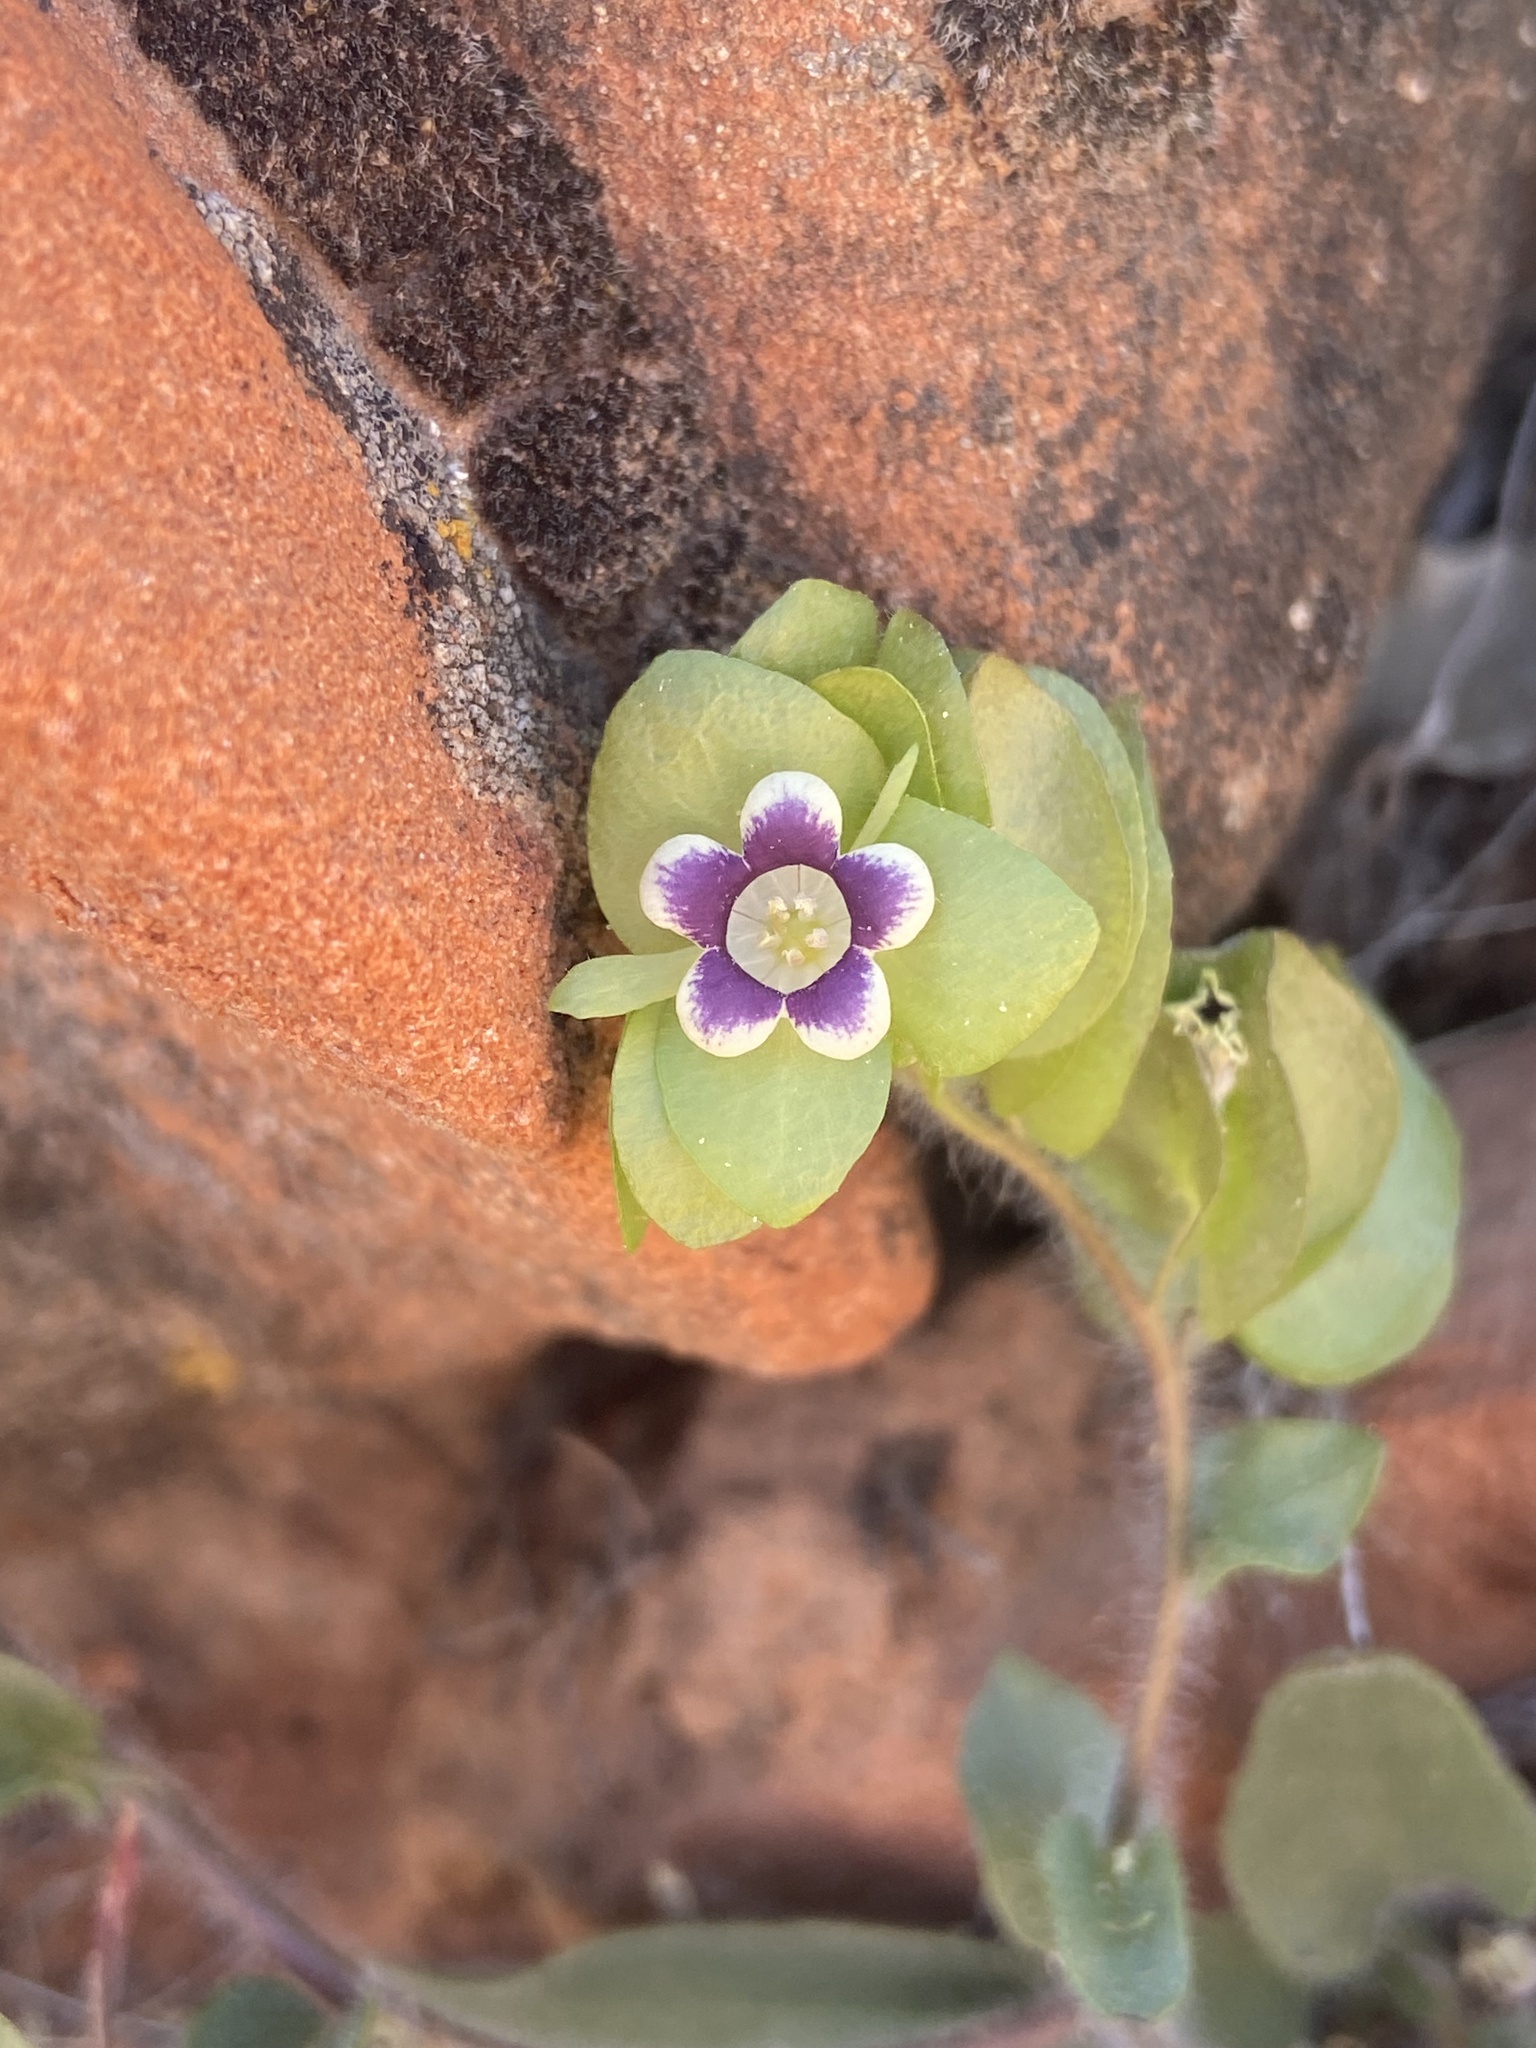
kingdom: Plantae
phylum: Tracheophyta
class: Magnoliopsida
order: Boraginales
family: Hydrophyllaceae
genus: Tricardia
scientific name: Tricardia watsonii
